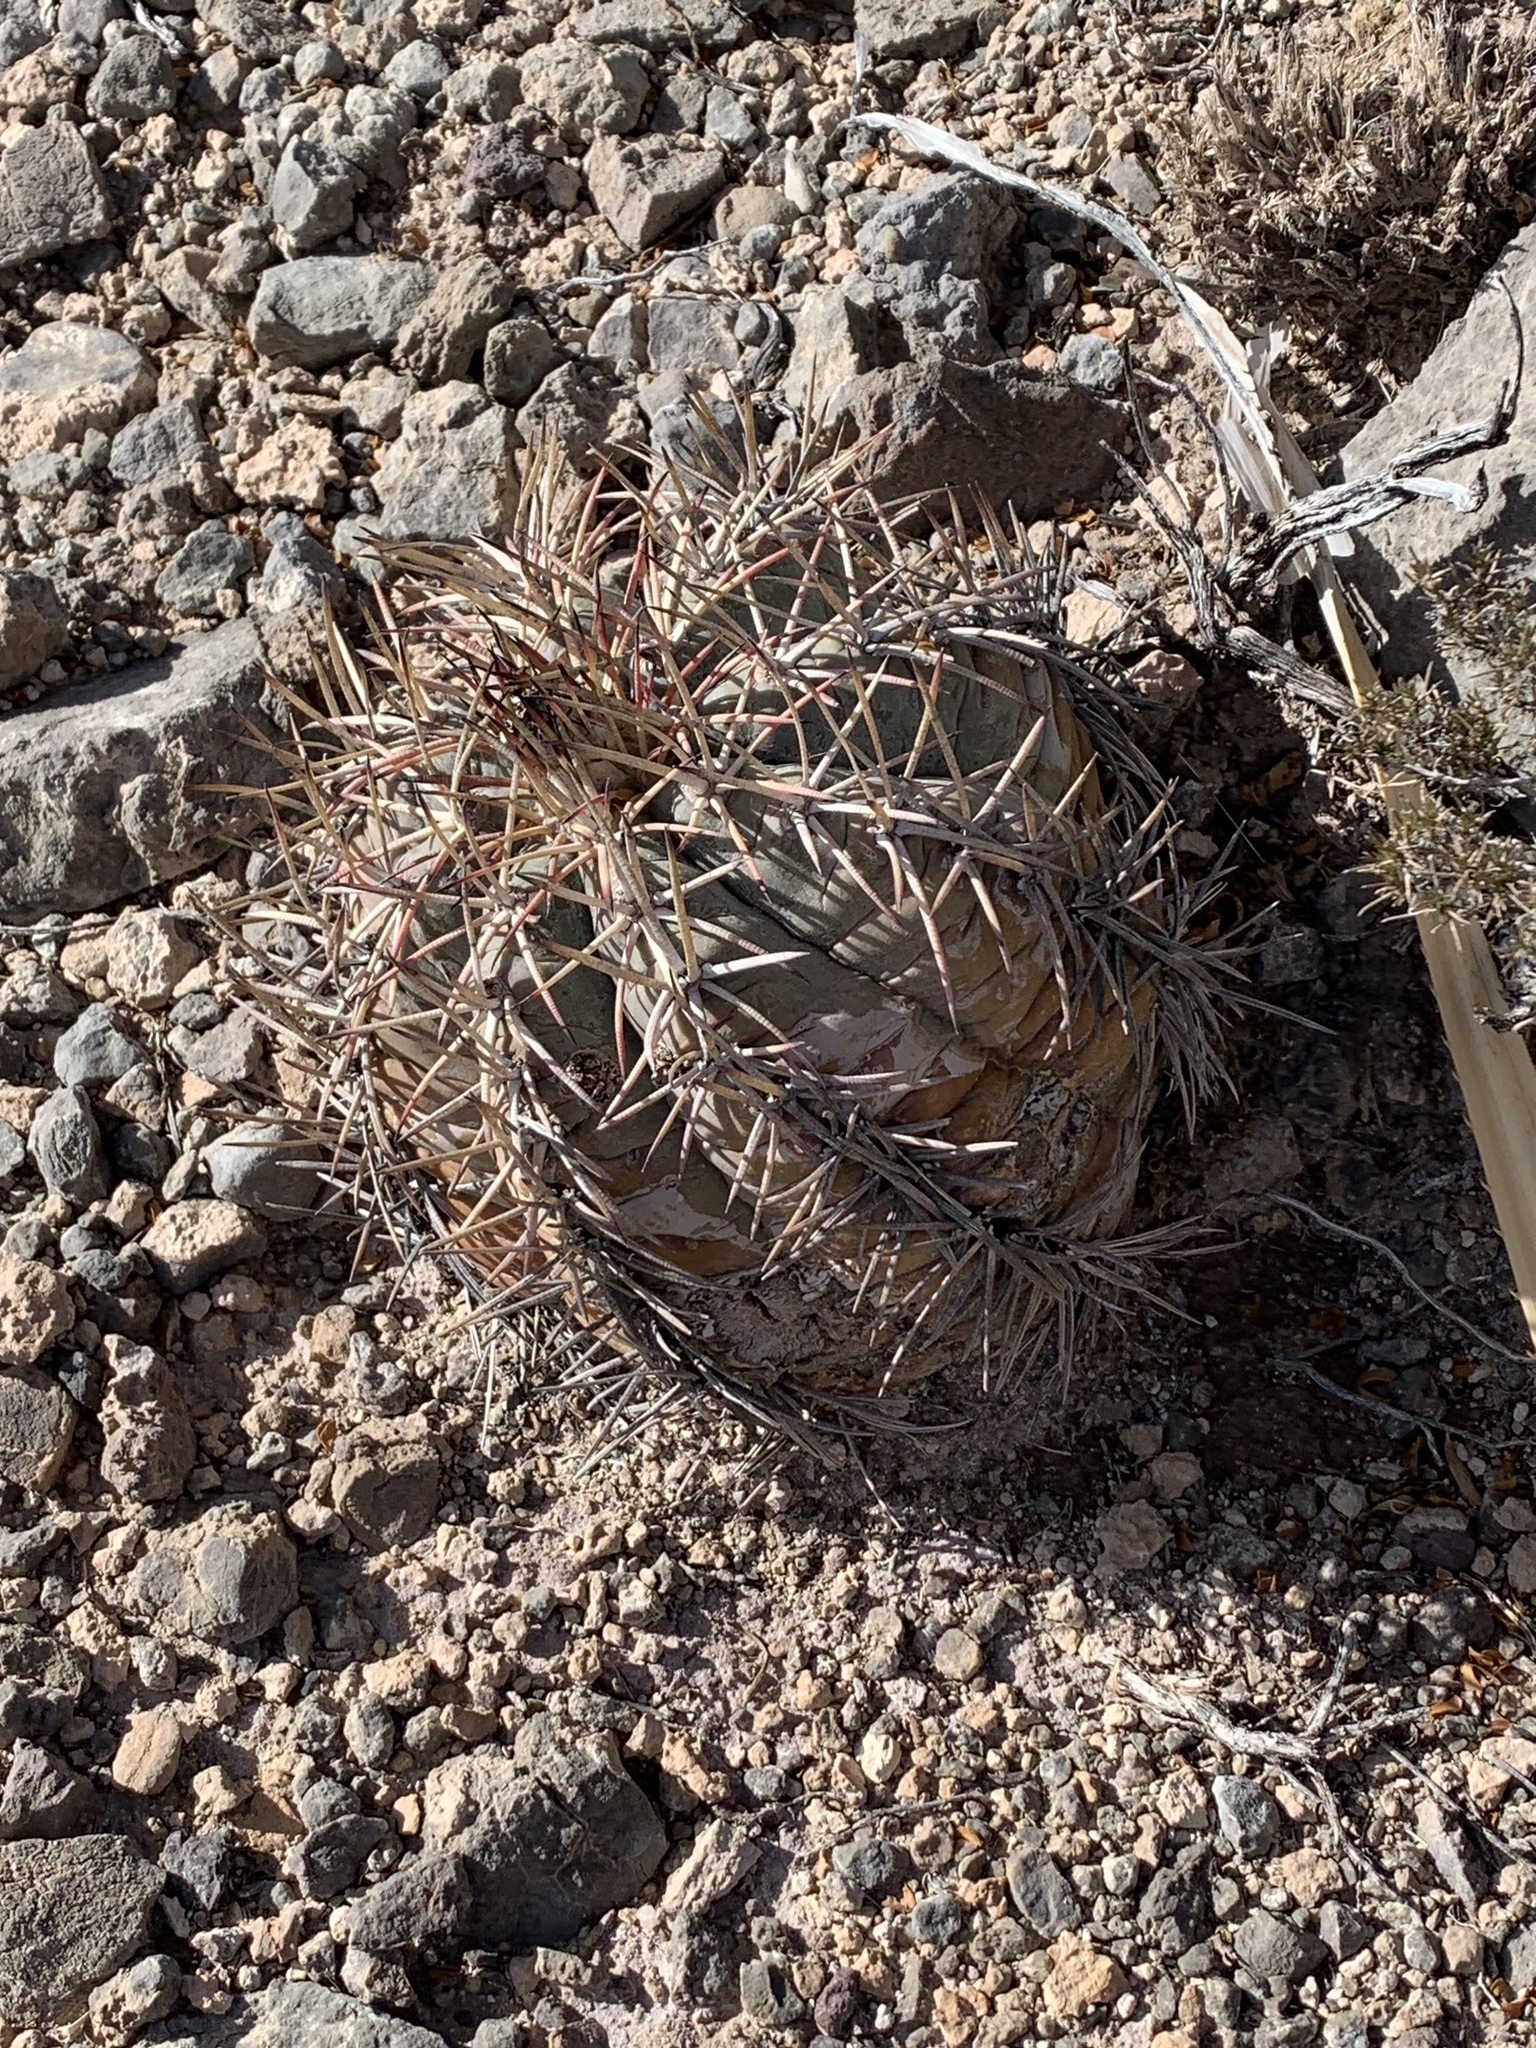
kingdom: Plantae
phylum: Tracheophyta
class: Magnoliopsida
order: Caryophyllales
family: Cactaceae
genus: Echinocactus
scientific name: Echinocactus horizonthalonius
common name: Devilshead
